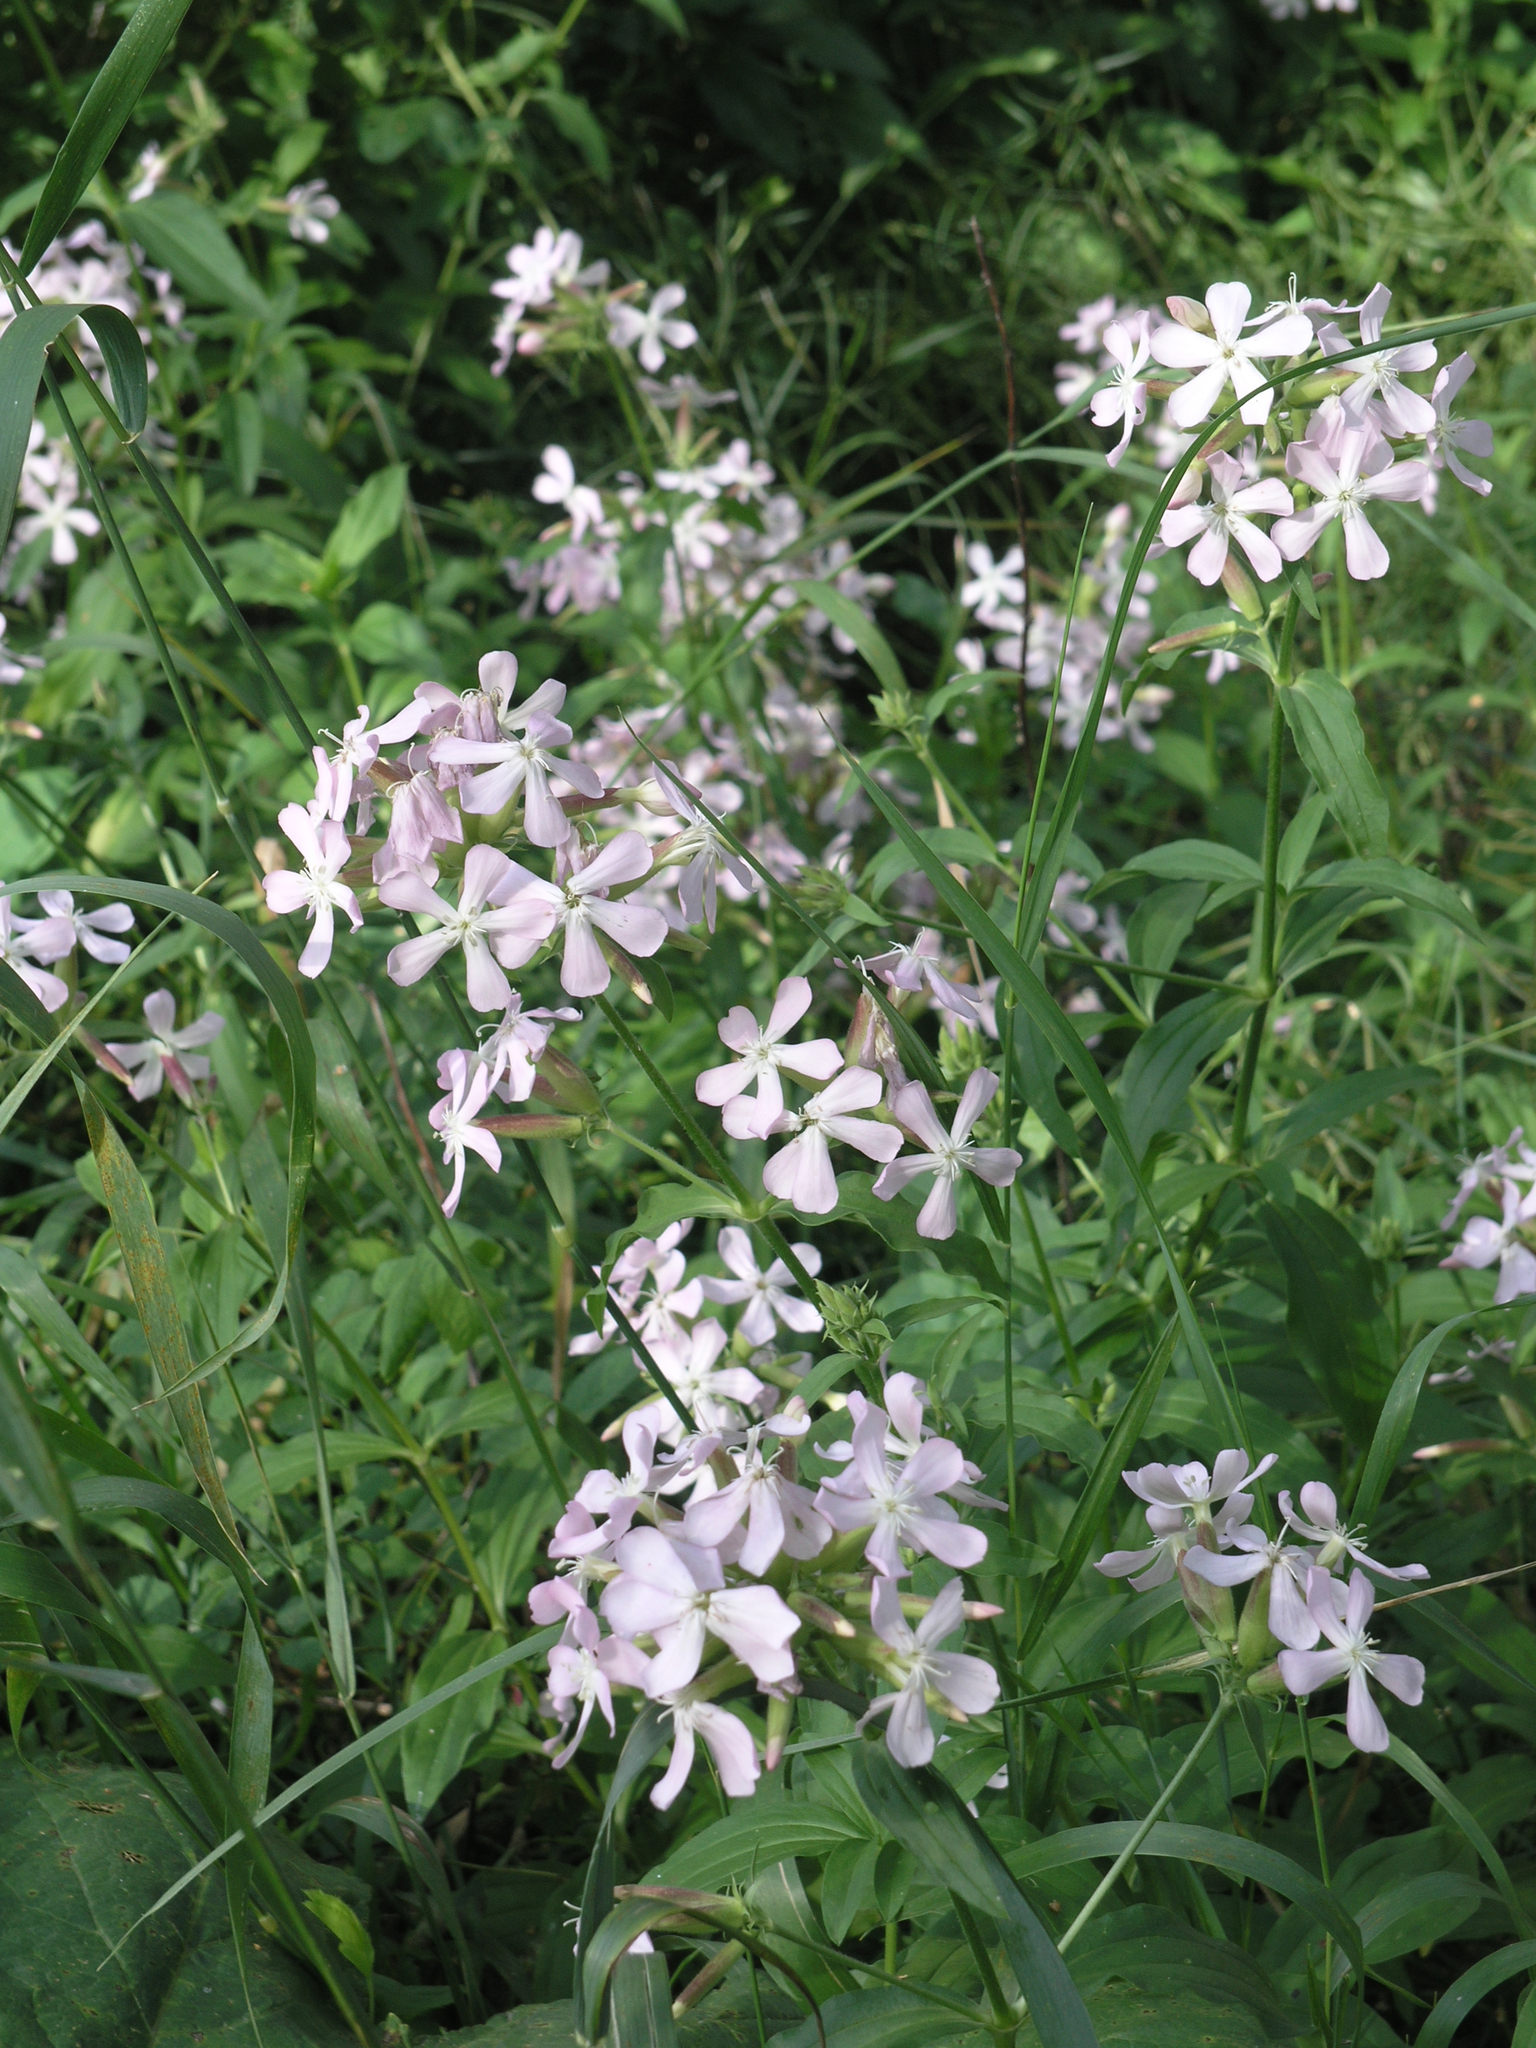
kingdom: Plantae
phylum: Tracheophyta
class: Magnoliopsida
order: Caryophyllales
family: Caryophyllaceae
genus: Saponaria
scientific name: Saponaria officinalis
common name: Soapwort
